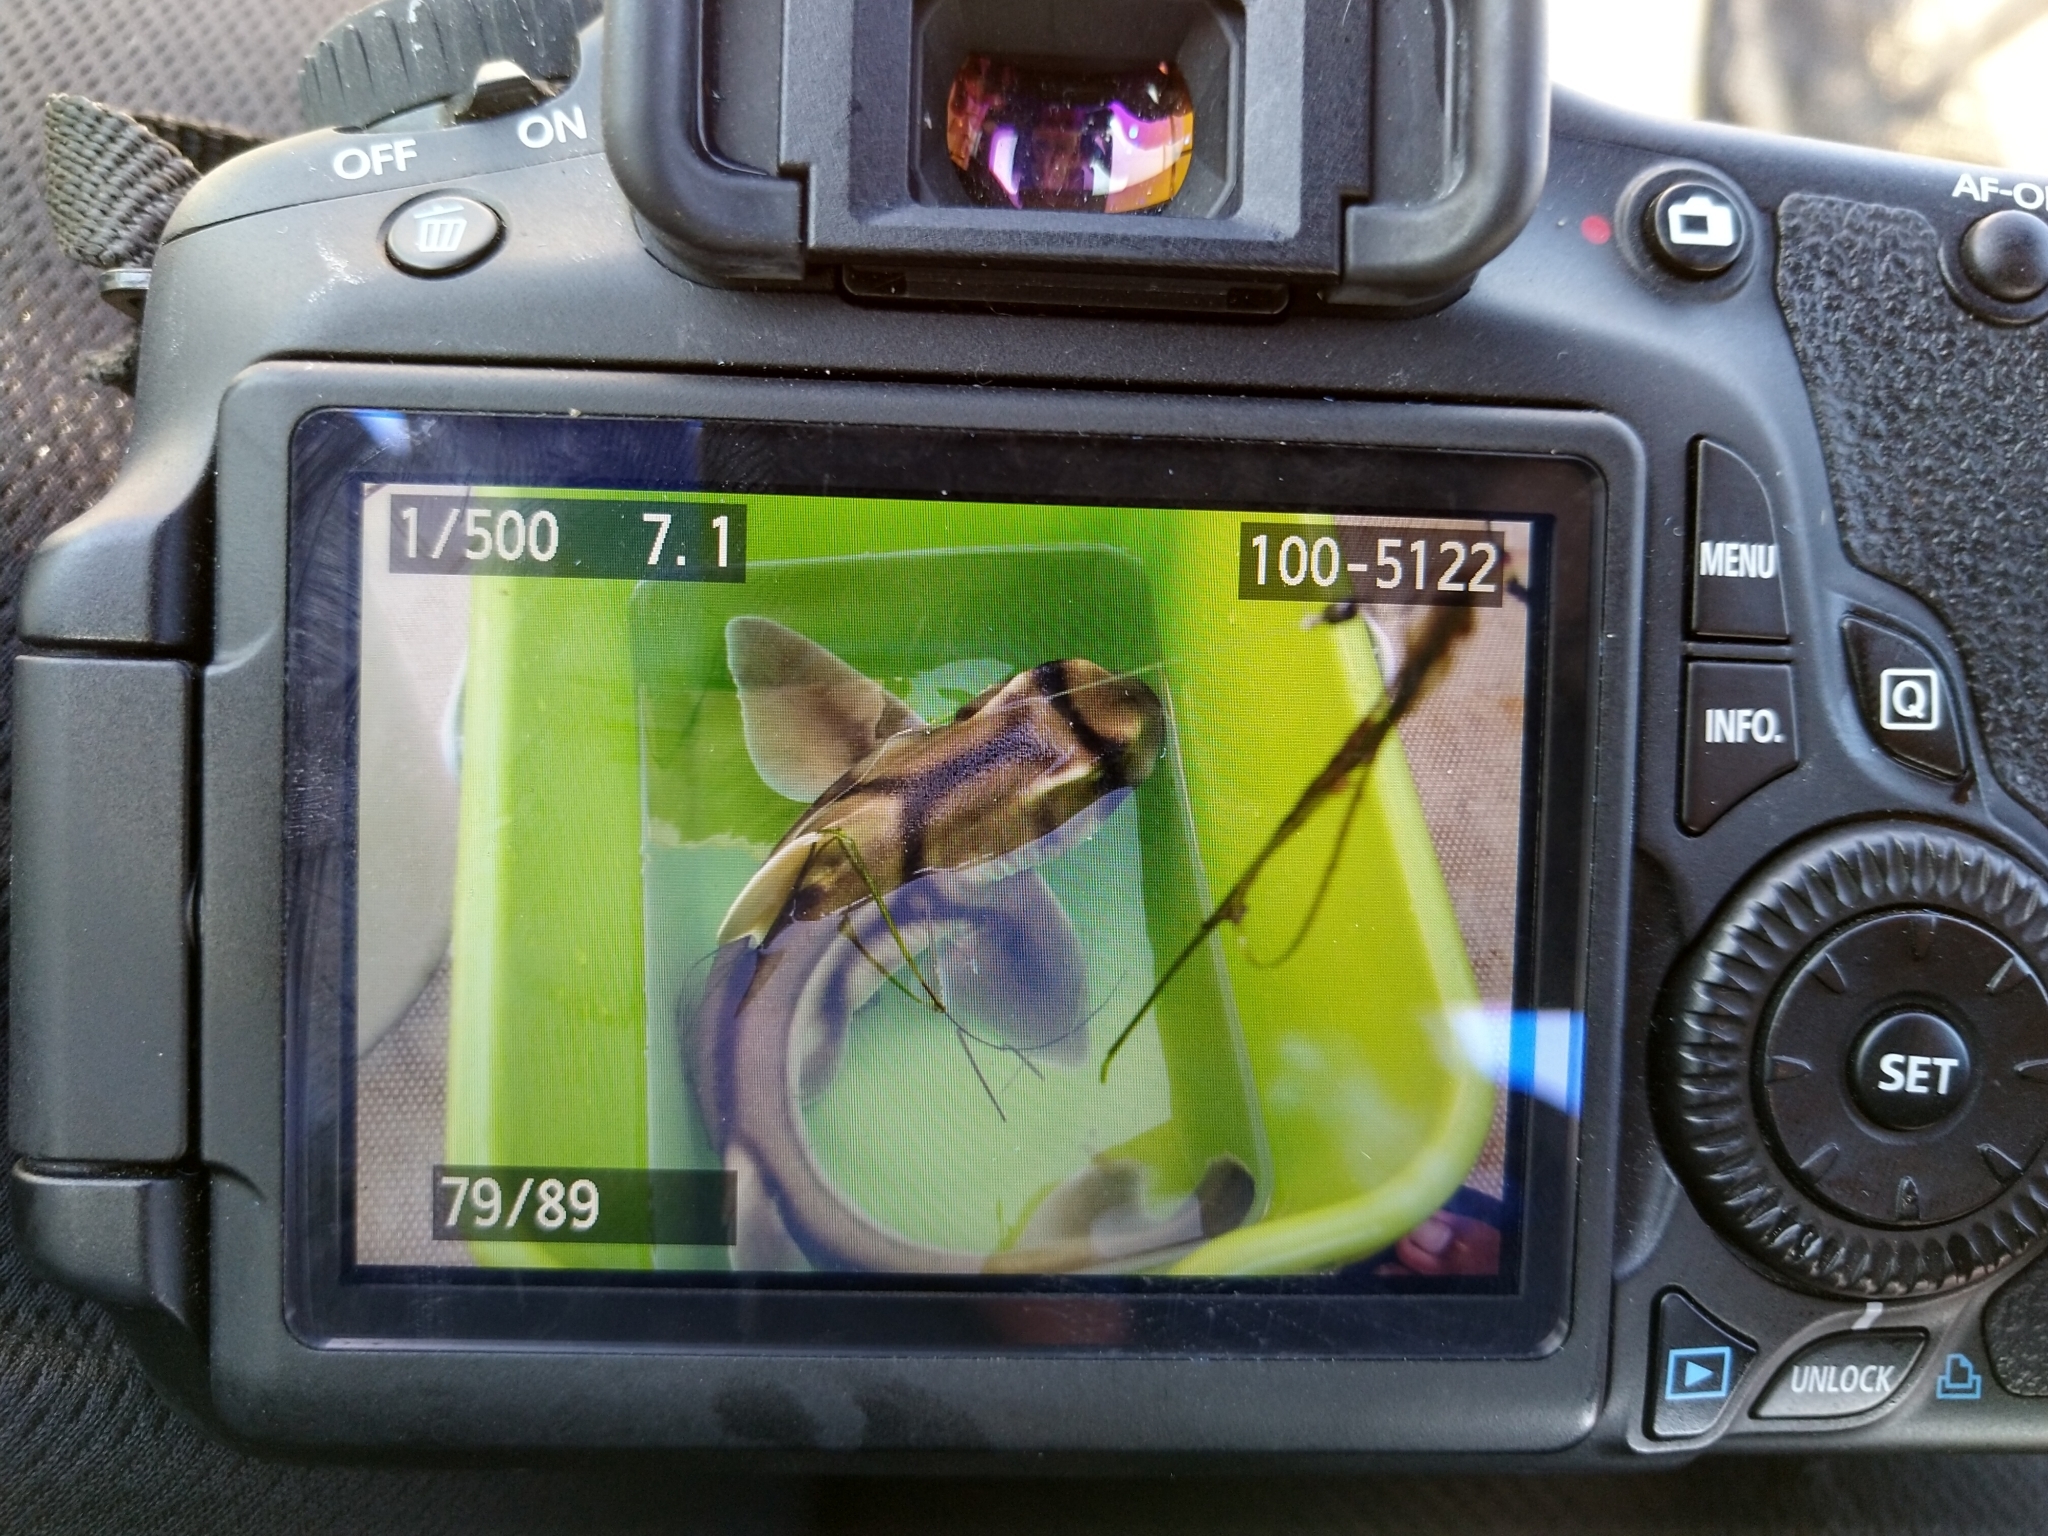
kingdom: Animalia
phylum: Chordata
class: Elasmobranchii
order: Heterodontiformes
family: Heterodontidae
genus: Heterodontus
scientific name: Heterodontus portusjacksoni
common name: Port jackson shark
